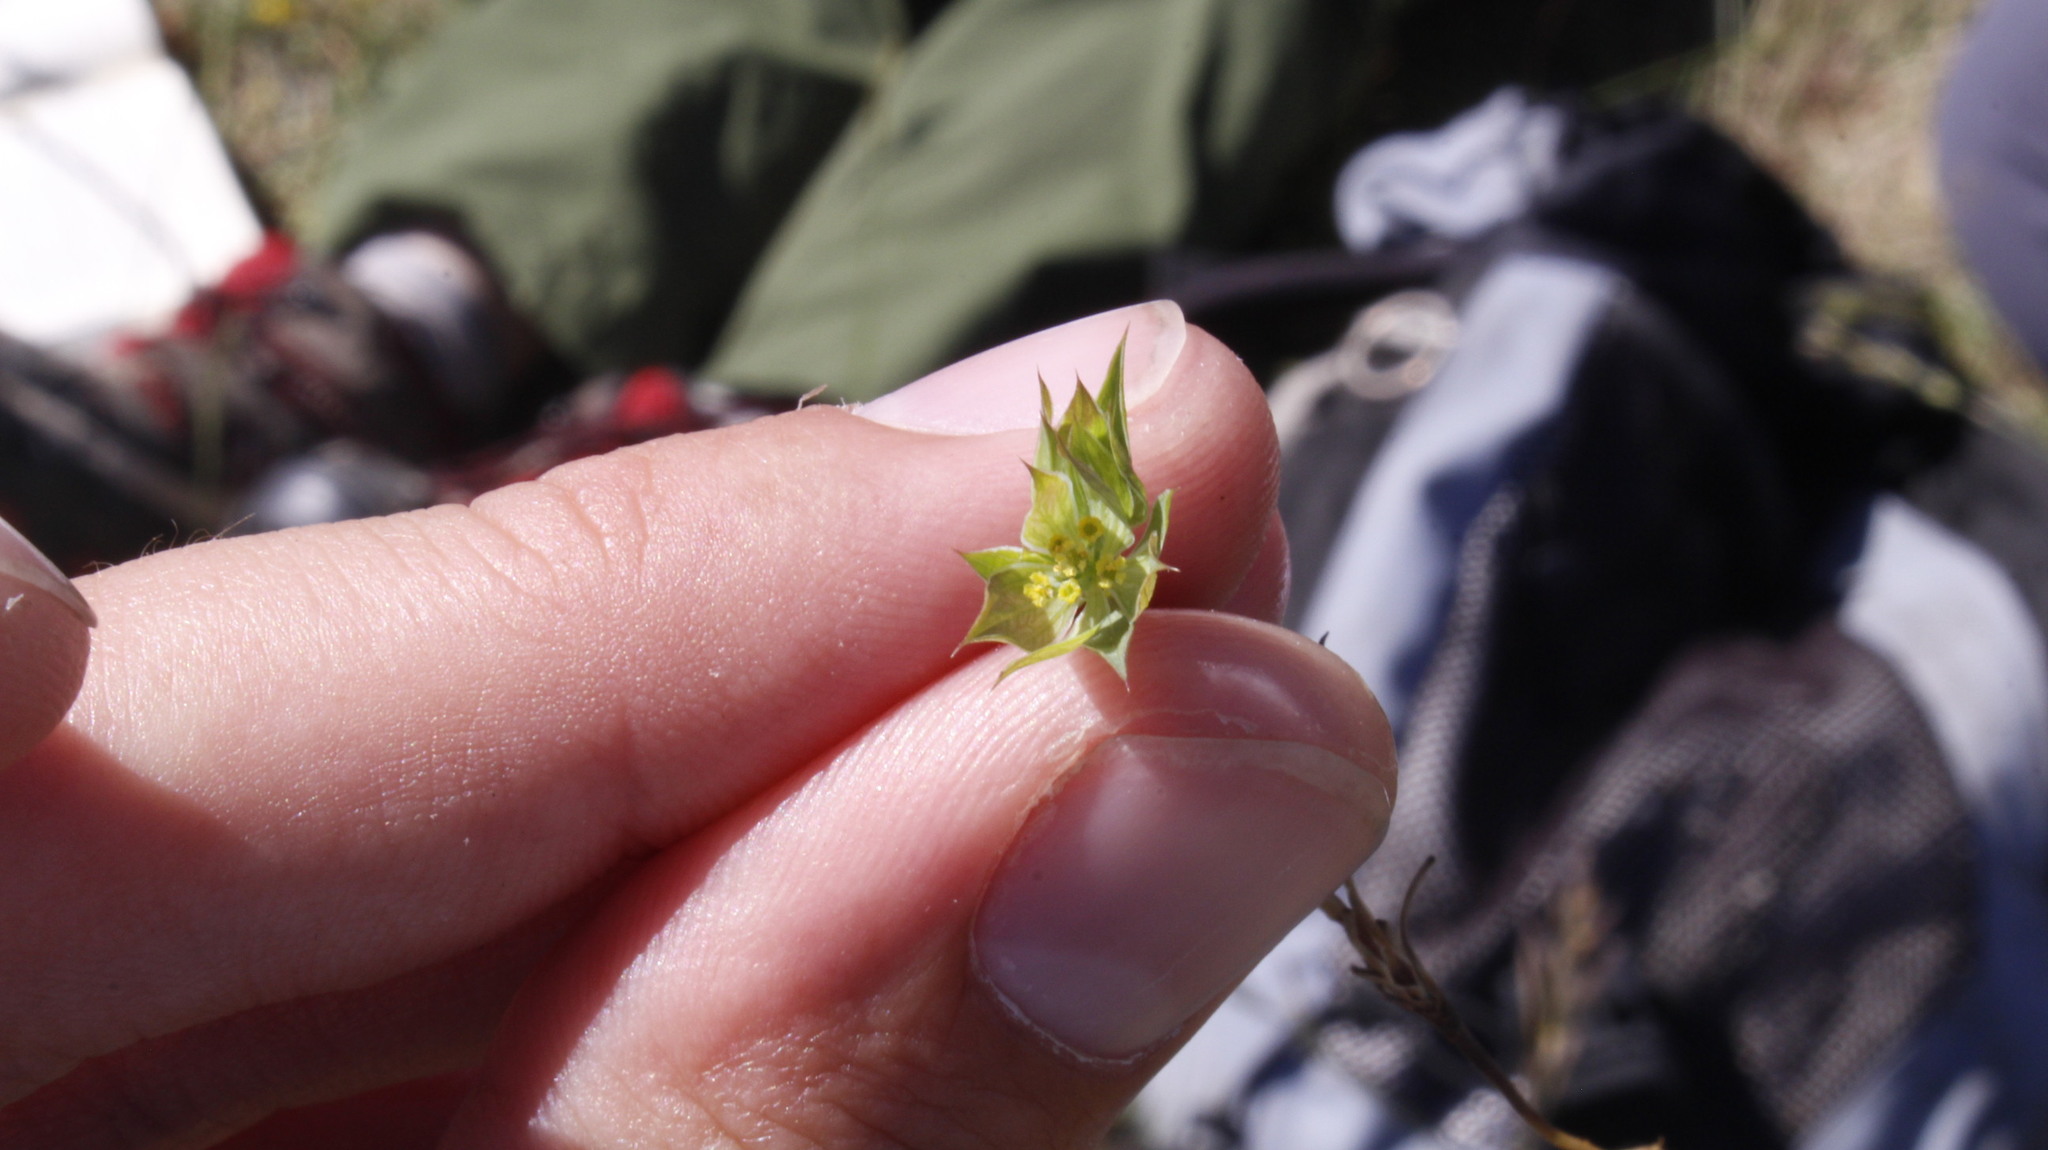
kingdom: Plantae
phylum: Tracheophyta
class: Magnoliopsida
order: Apiales
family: Apiaceae
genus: Bupleurum
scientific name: Bupleurum baldense
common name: Small hare's-ear
